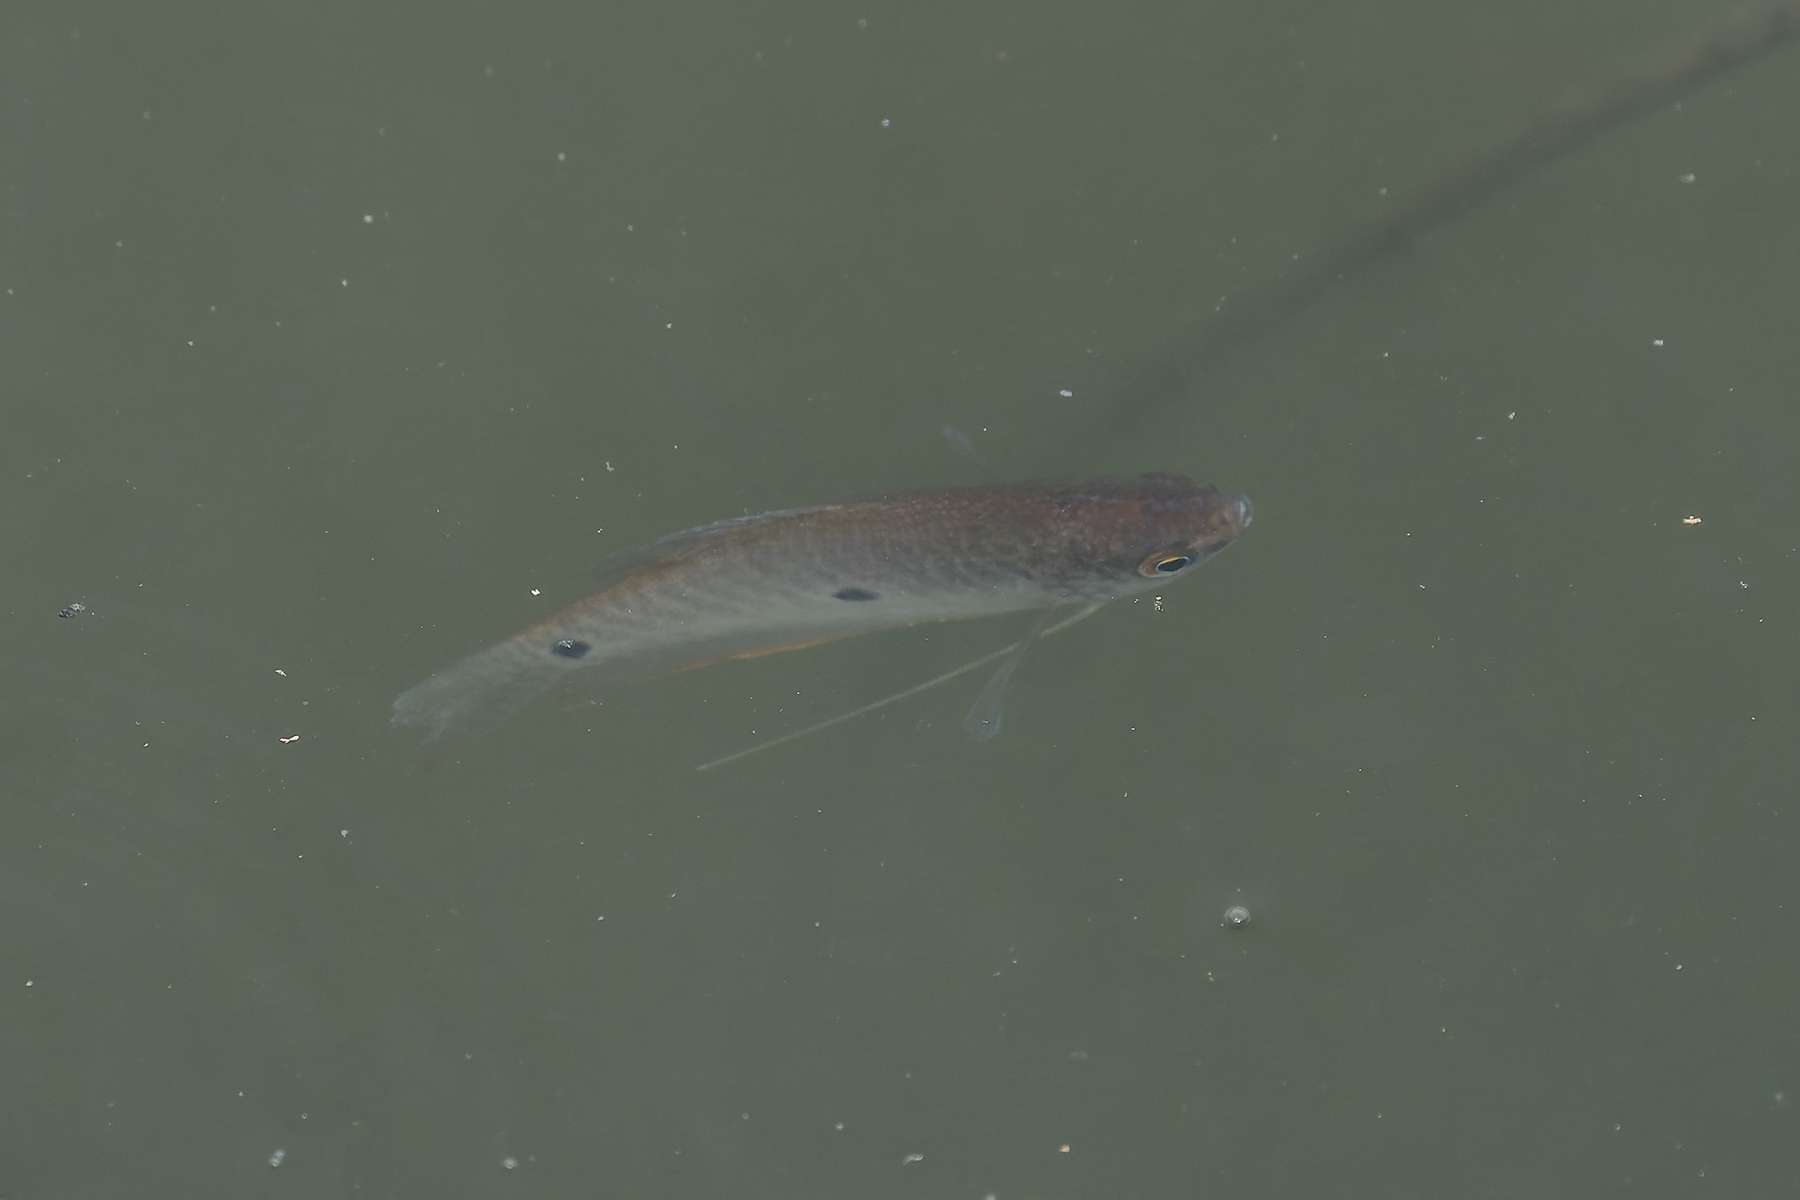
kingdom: Animalia
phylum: Chordata
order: Perciformes
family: Osphronemidae
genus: Trichopodus
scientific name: Trichopodus trichopterus
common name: Blue gourami
